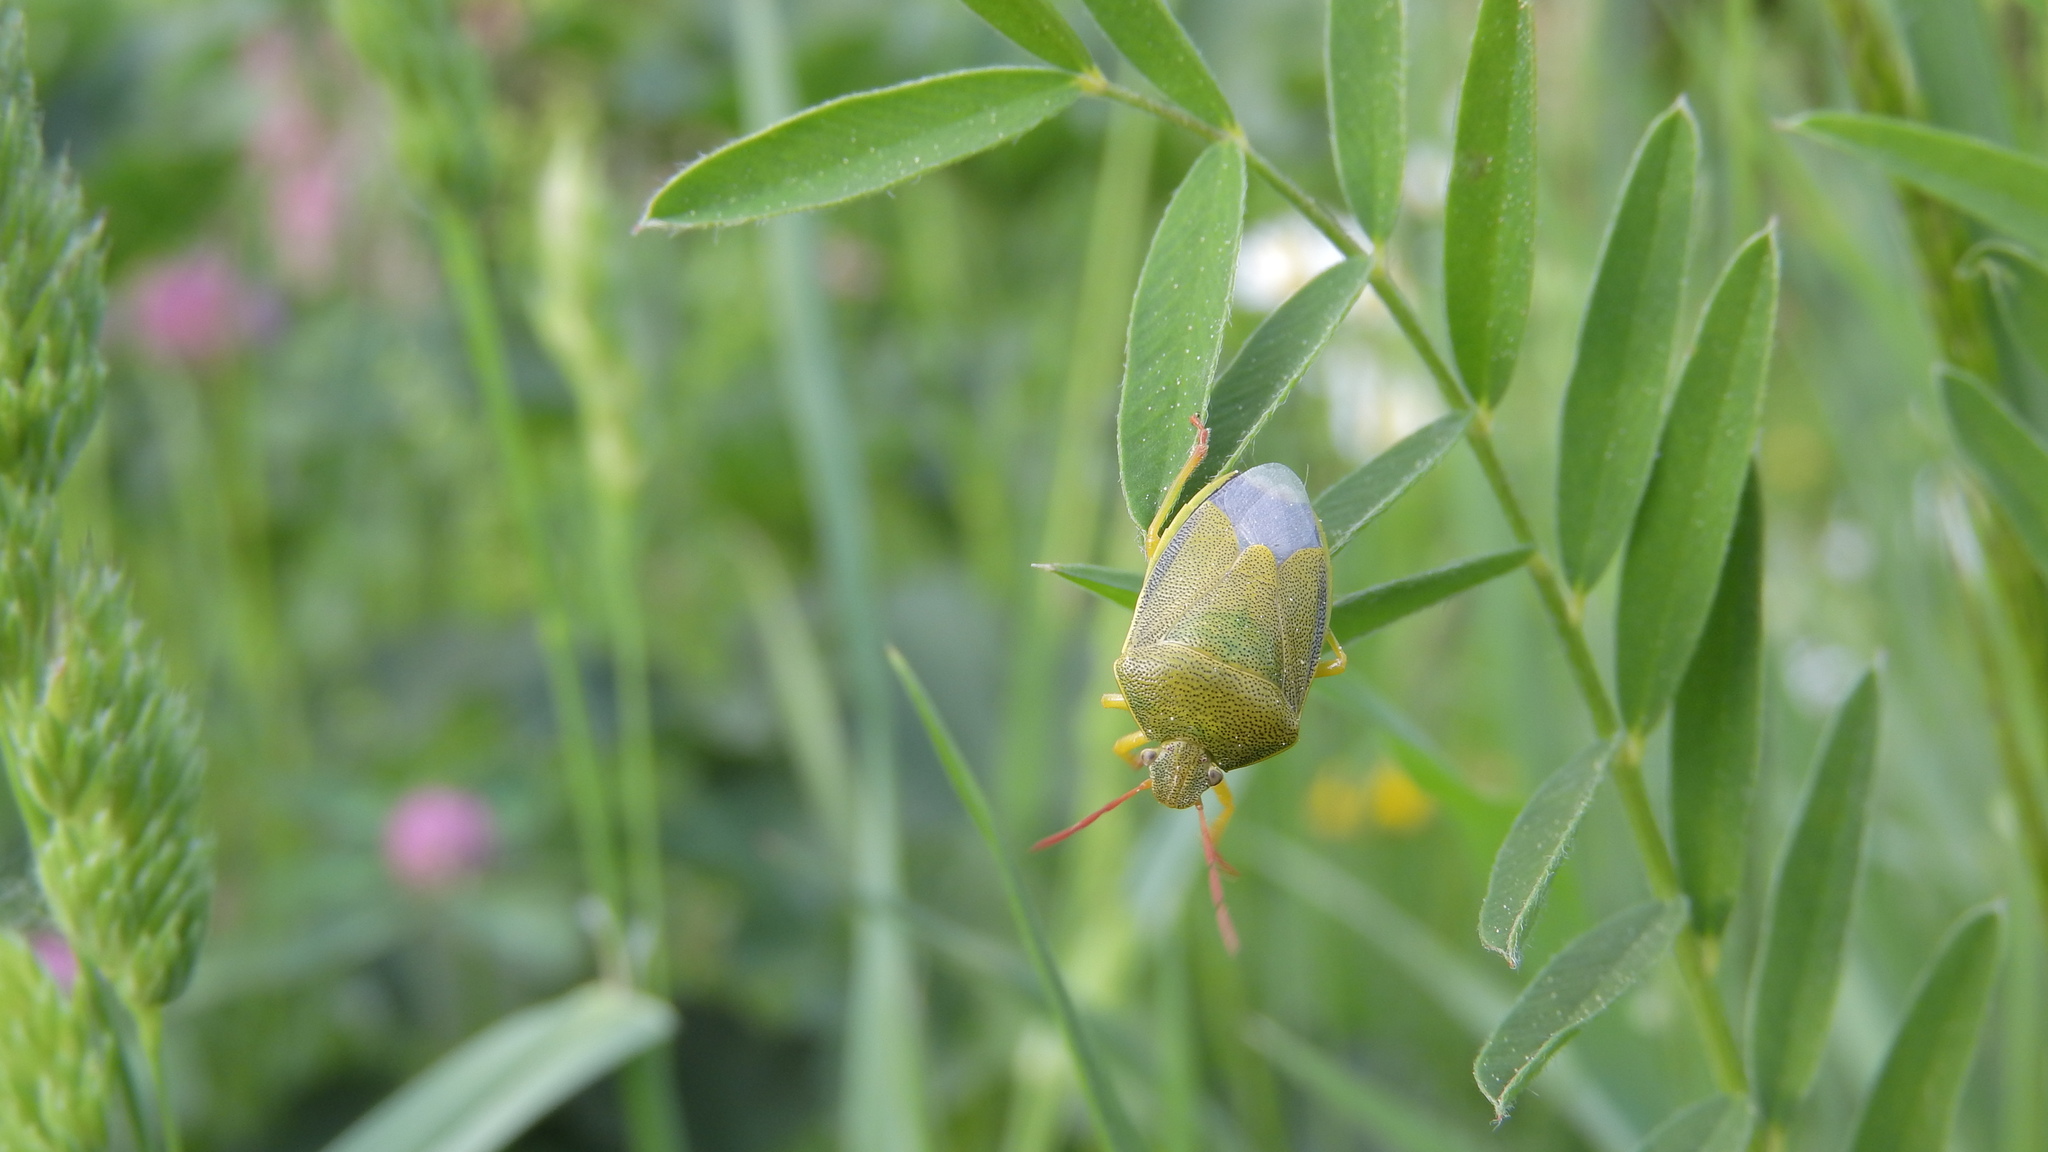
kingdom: Animalia
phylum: Arthropoda
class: Insecta
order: Hemiptera
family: Pentatomidae
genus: Piezodorus
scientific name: Piezodorus lituratus
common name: Stink bug
